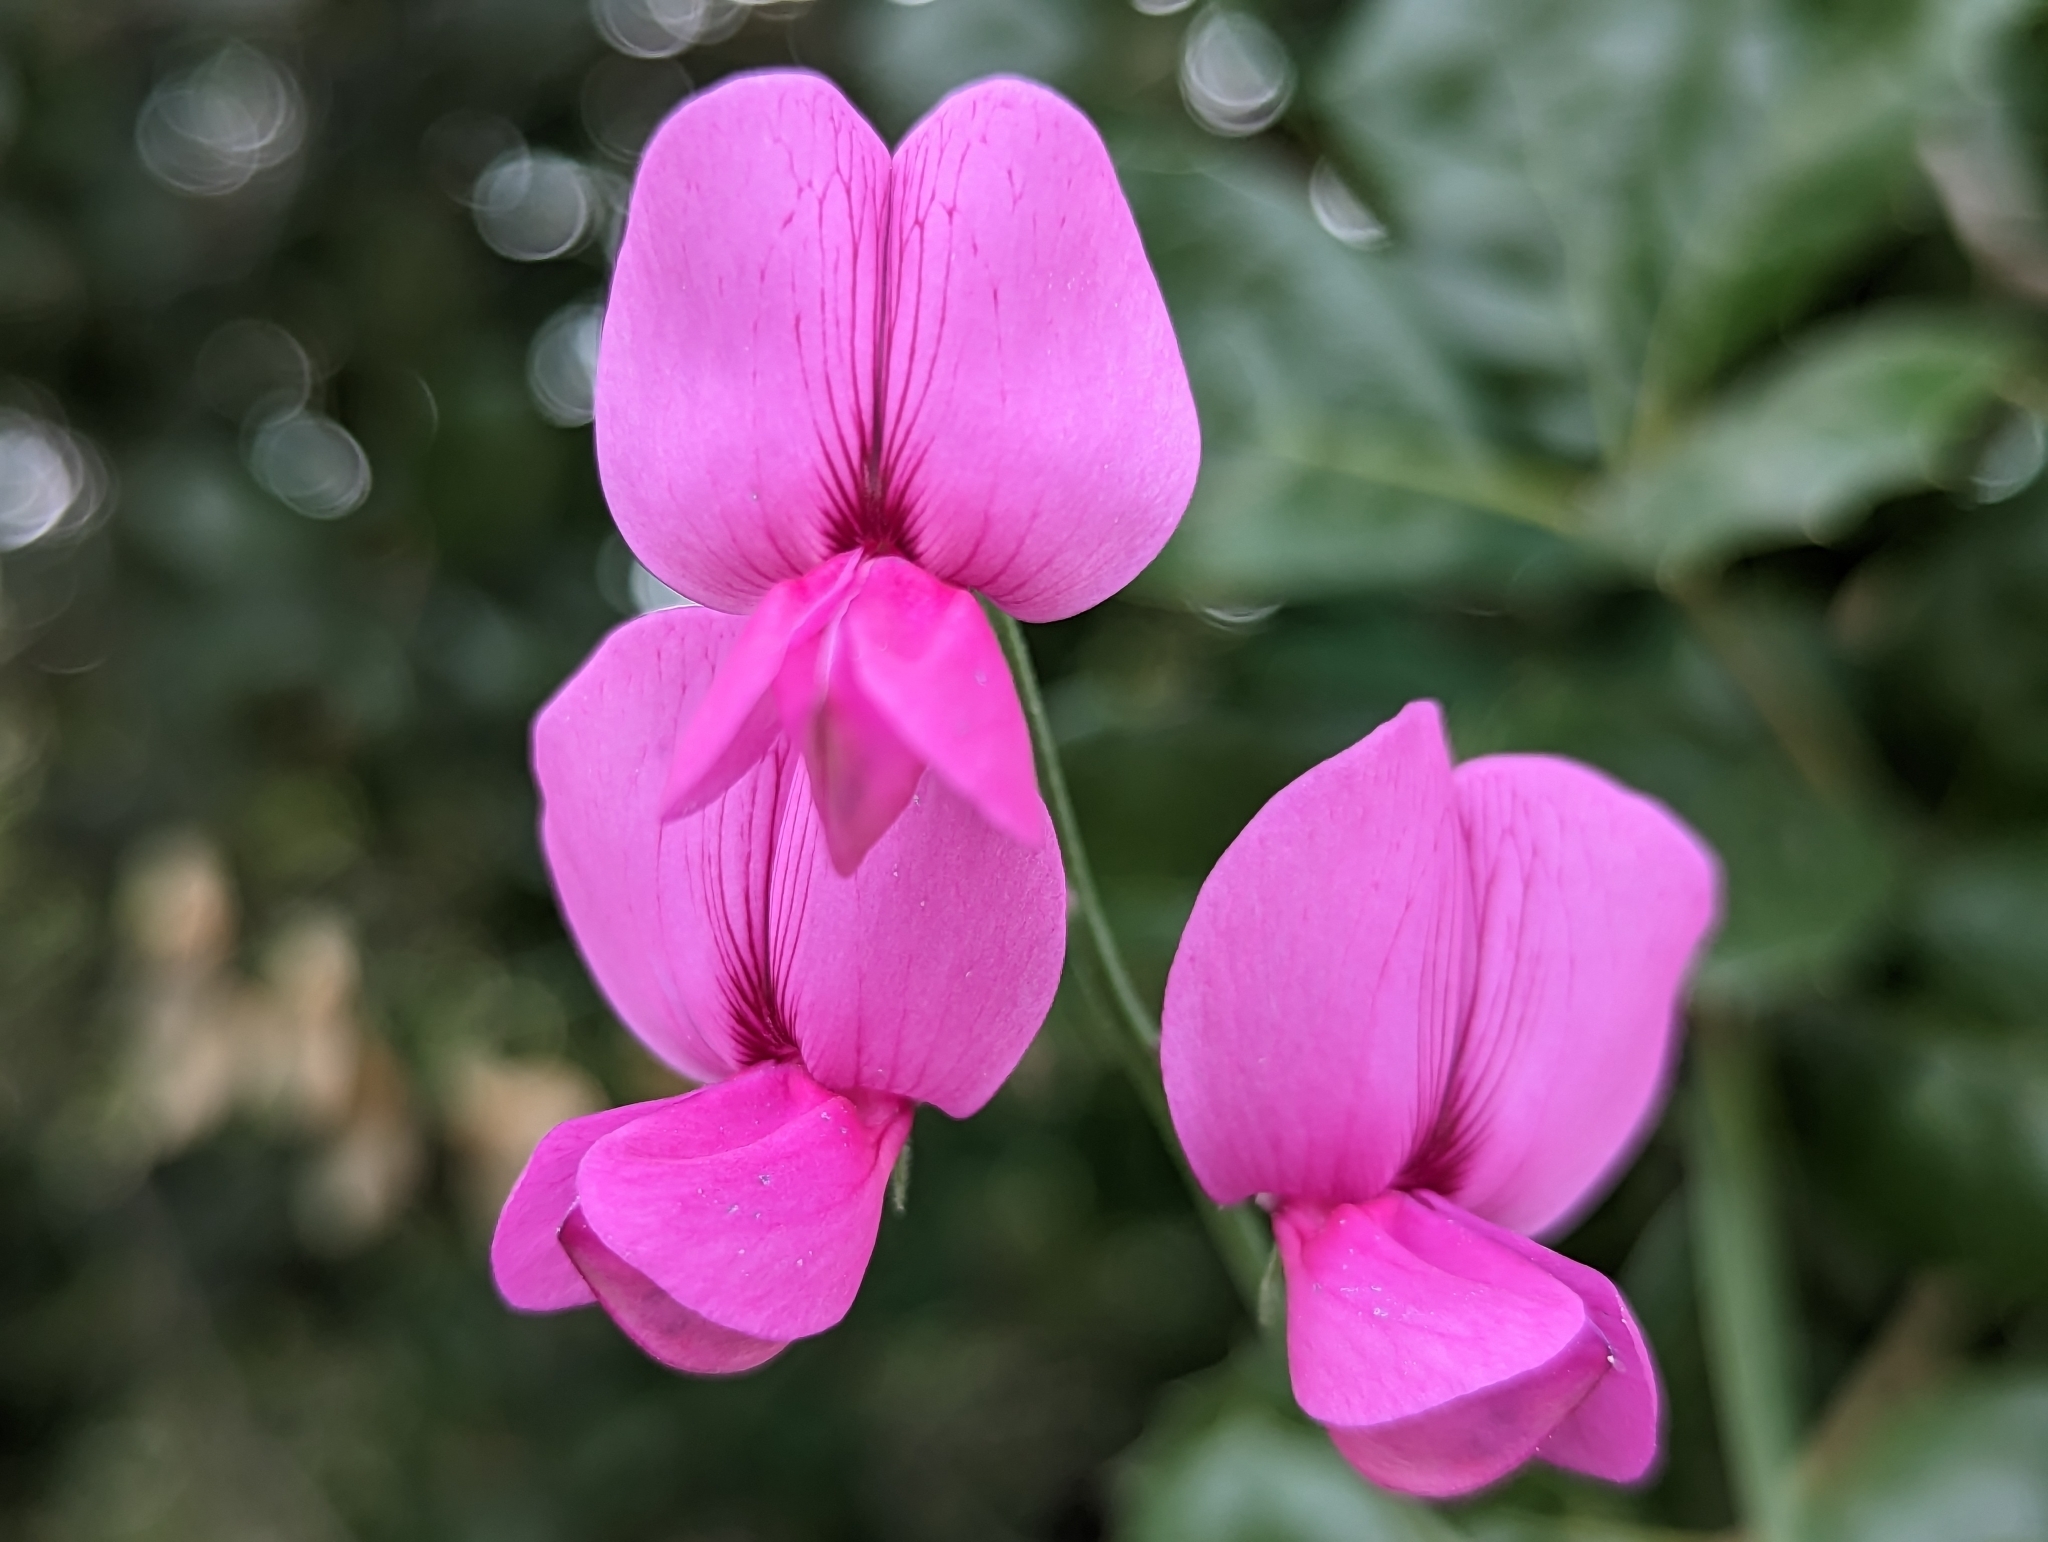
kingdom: Plantae
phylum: Tracheophyta
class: Magnoliopsida
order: Fabales
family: Fabaceae
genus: Lathyrus
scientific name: Lathyrus vestitus
